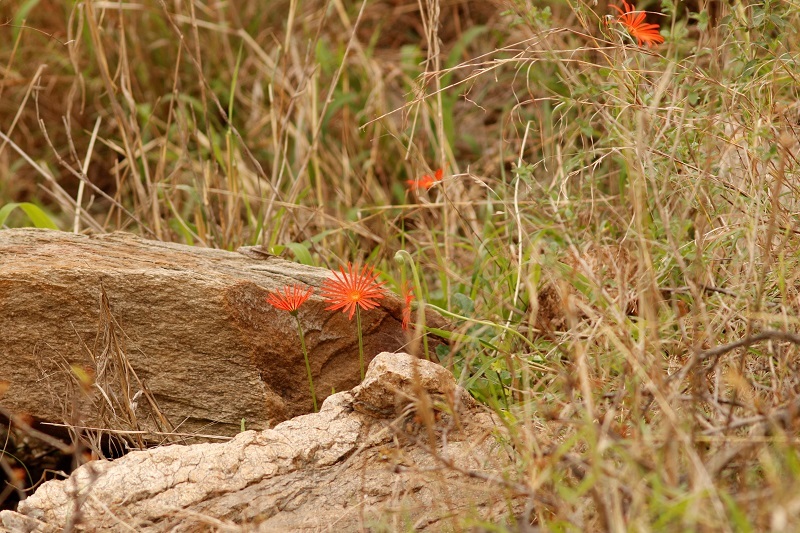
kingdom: Plantae
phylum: Tracheophyta
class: Magnoliopsida
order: Asterales
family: Asteraceae
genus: Gerbera
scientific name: Gerbera jamesonii
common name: African daisy
